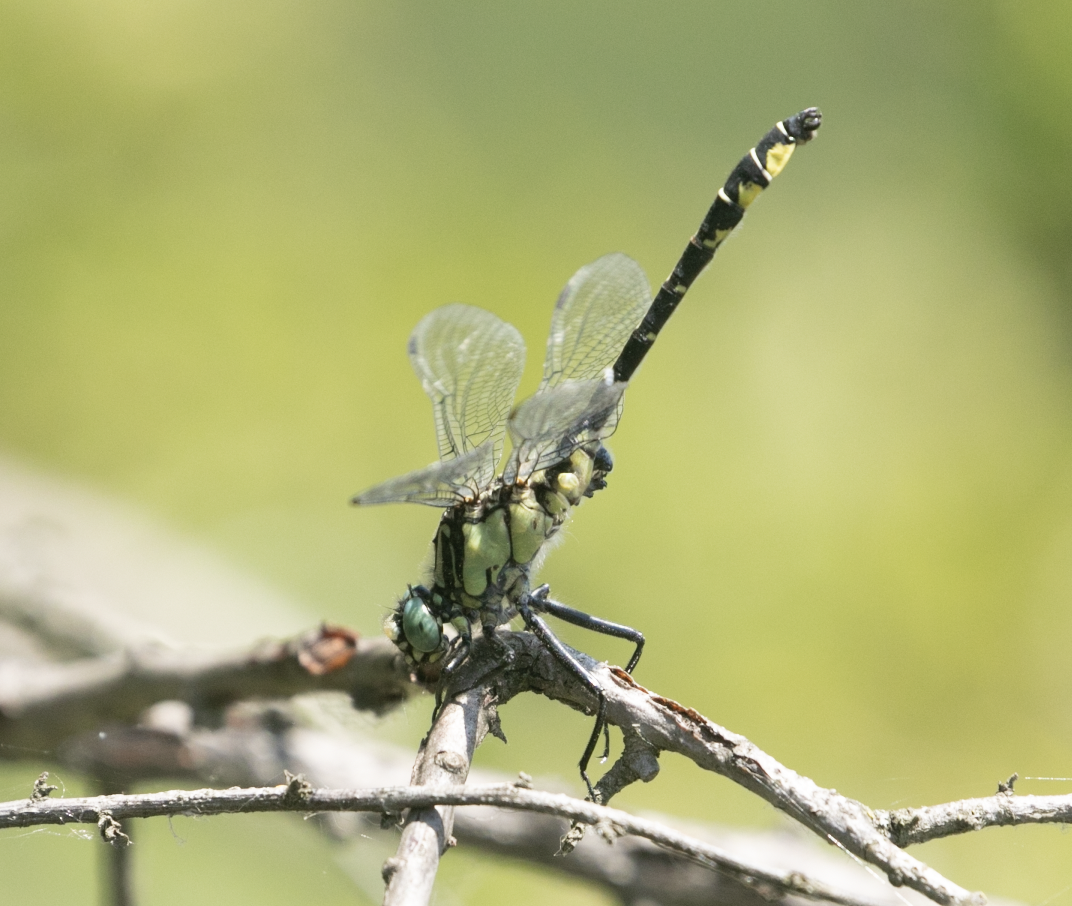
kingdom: Animalia
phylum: Arthropoda
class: Insecta
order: Odonata
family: Gomphidae
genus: Gomphus
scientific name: Gomphus vulgatissimus
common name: Club-tailed dragonfly
